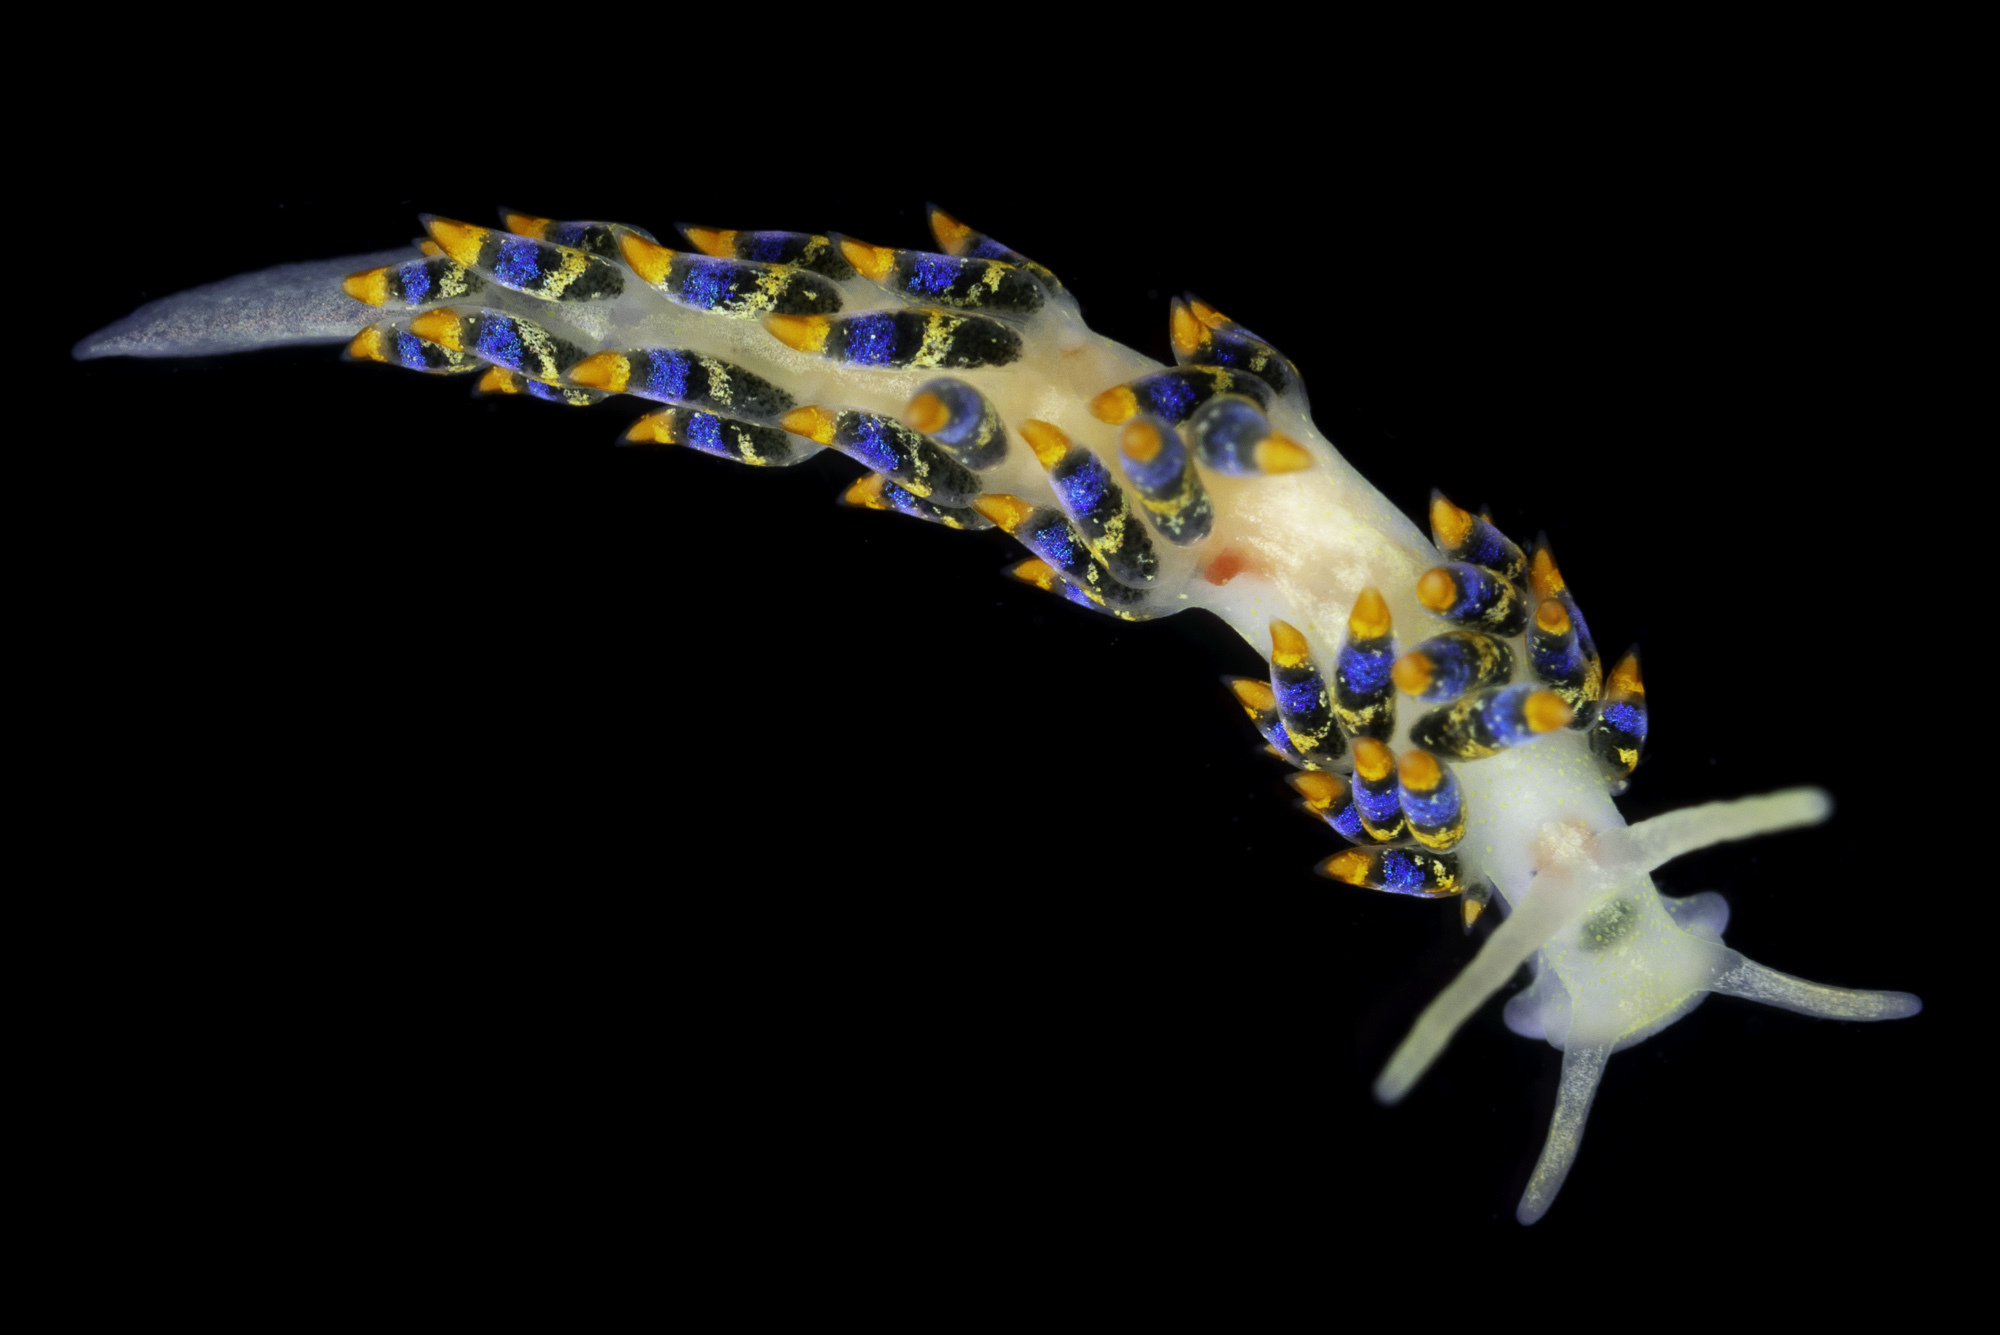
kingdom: Animalia
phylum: Mollusca
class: Gastropoda
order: Nudibranchia
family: Trinchesiidae
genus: Trinchesia
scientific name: Trinchesia cuanensis
